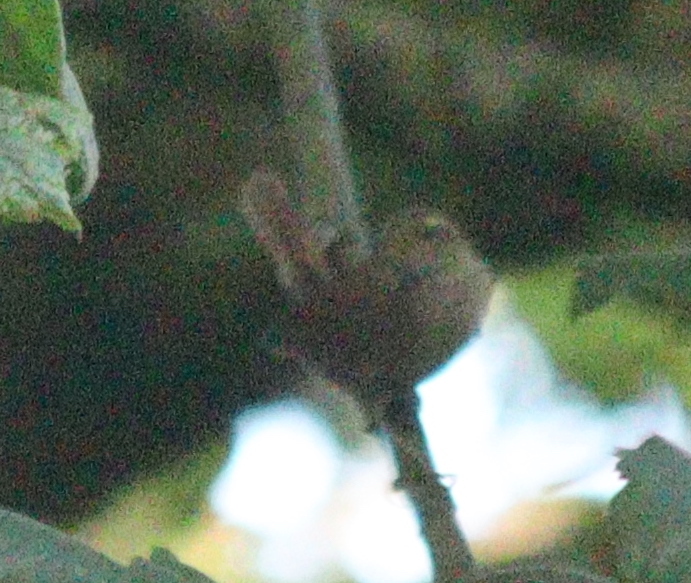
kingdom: Animalia
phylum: Chordata
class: Aves
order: Passeriformes
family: Troglodytidae
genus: Troglodytes
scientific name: Troglodytes troglodytes
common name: Eurasian wren
